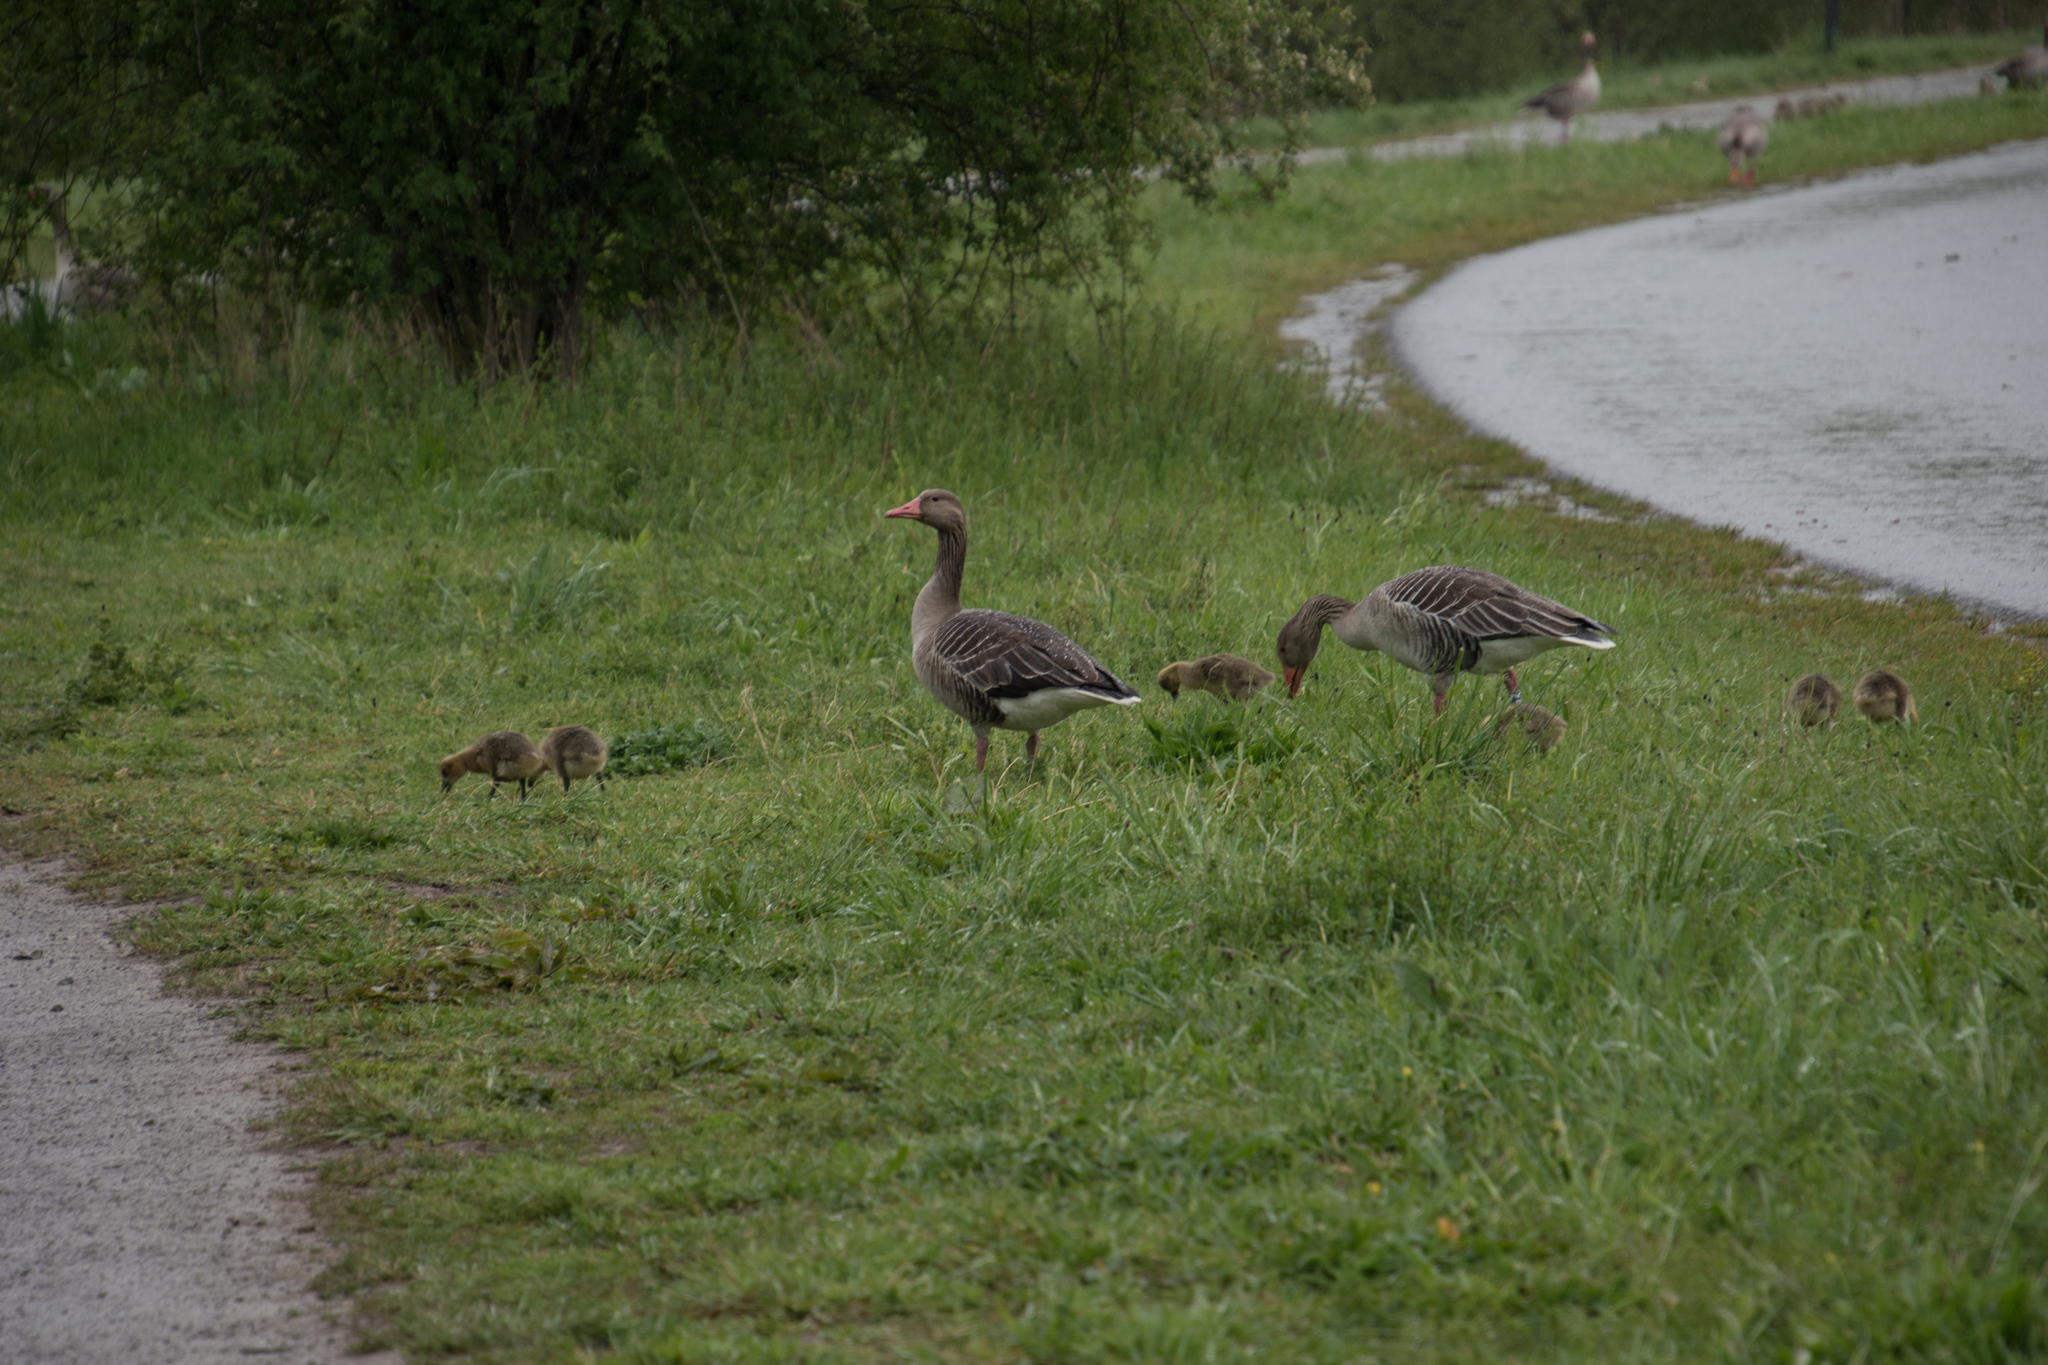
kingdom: Animalia
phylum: Chordata
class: Aves
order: Anseriformes
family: Anatidae
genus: Anser
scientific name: Anser anser
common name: Greylag goose
